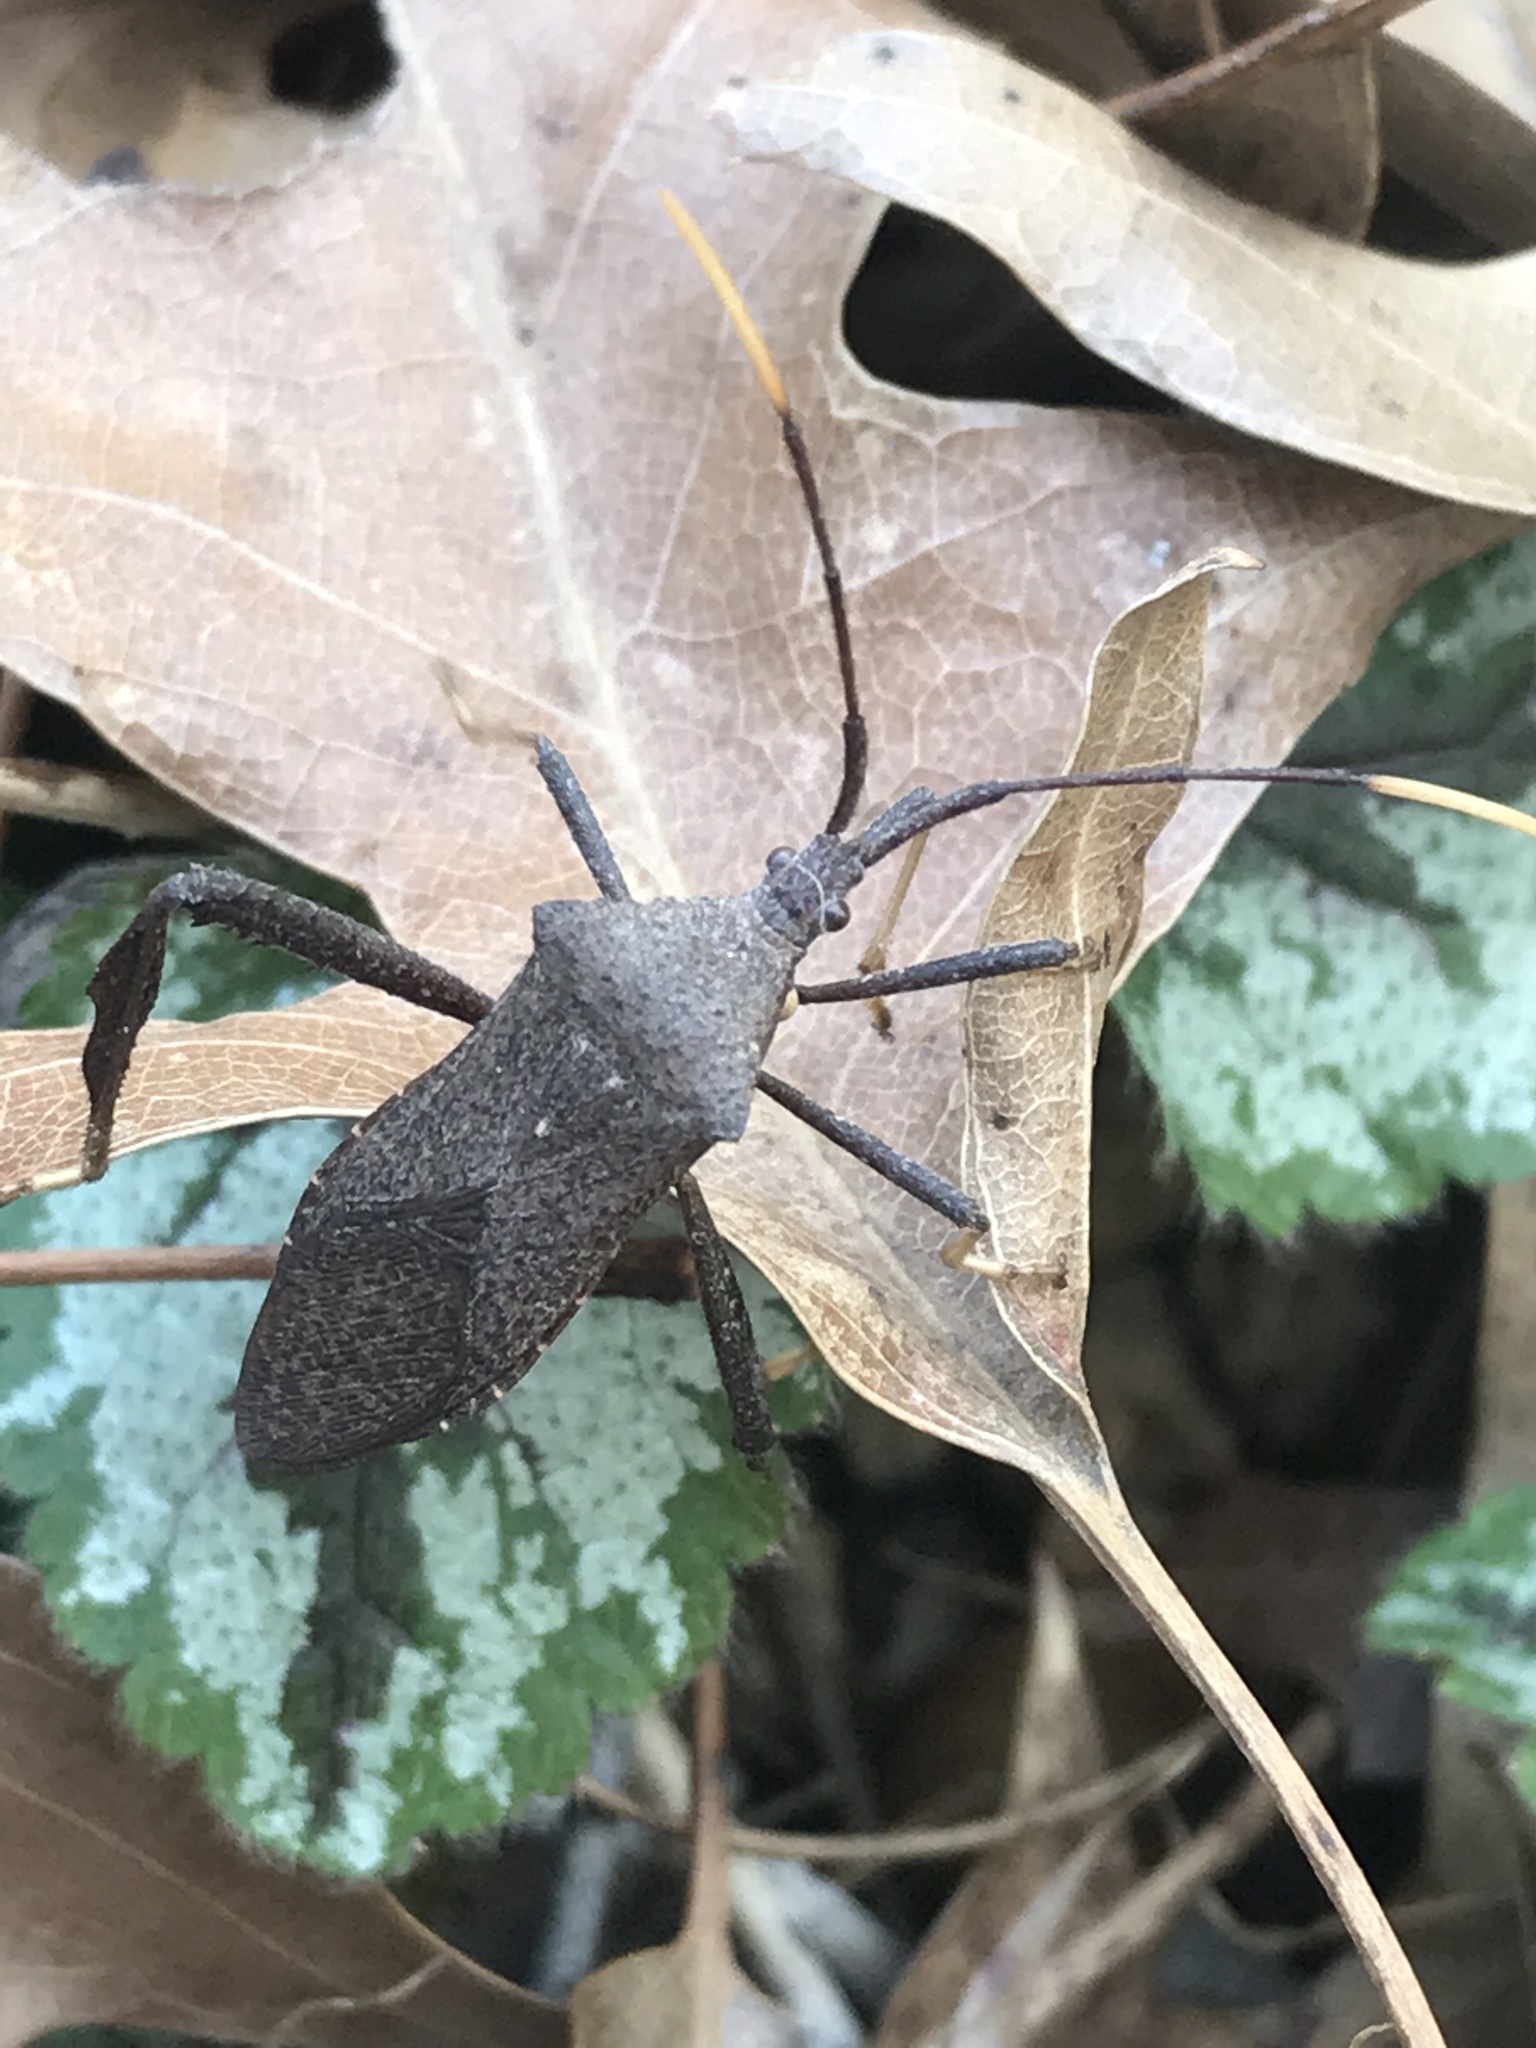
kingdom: Animalia
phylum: Arthropoda
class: Insecta
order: Hemiptera
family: Coreidae
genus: Acanthocephala
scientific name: Acanthocephala terminalis
